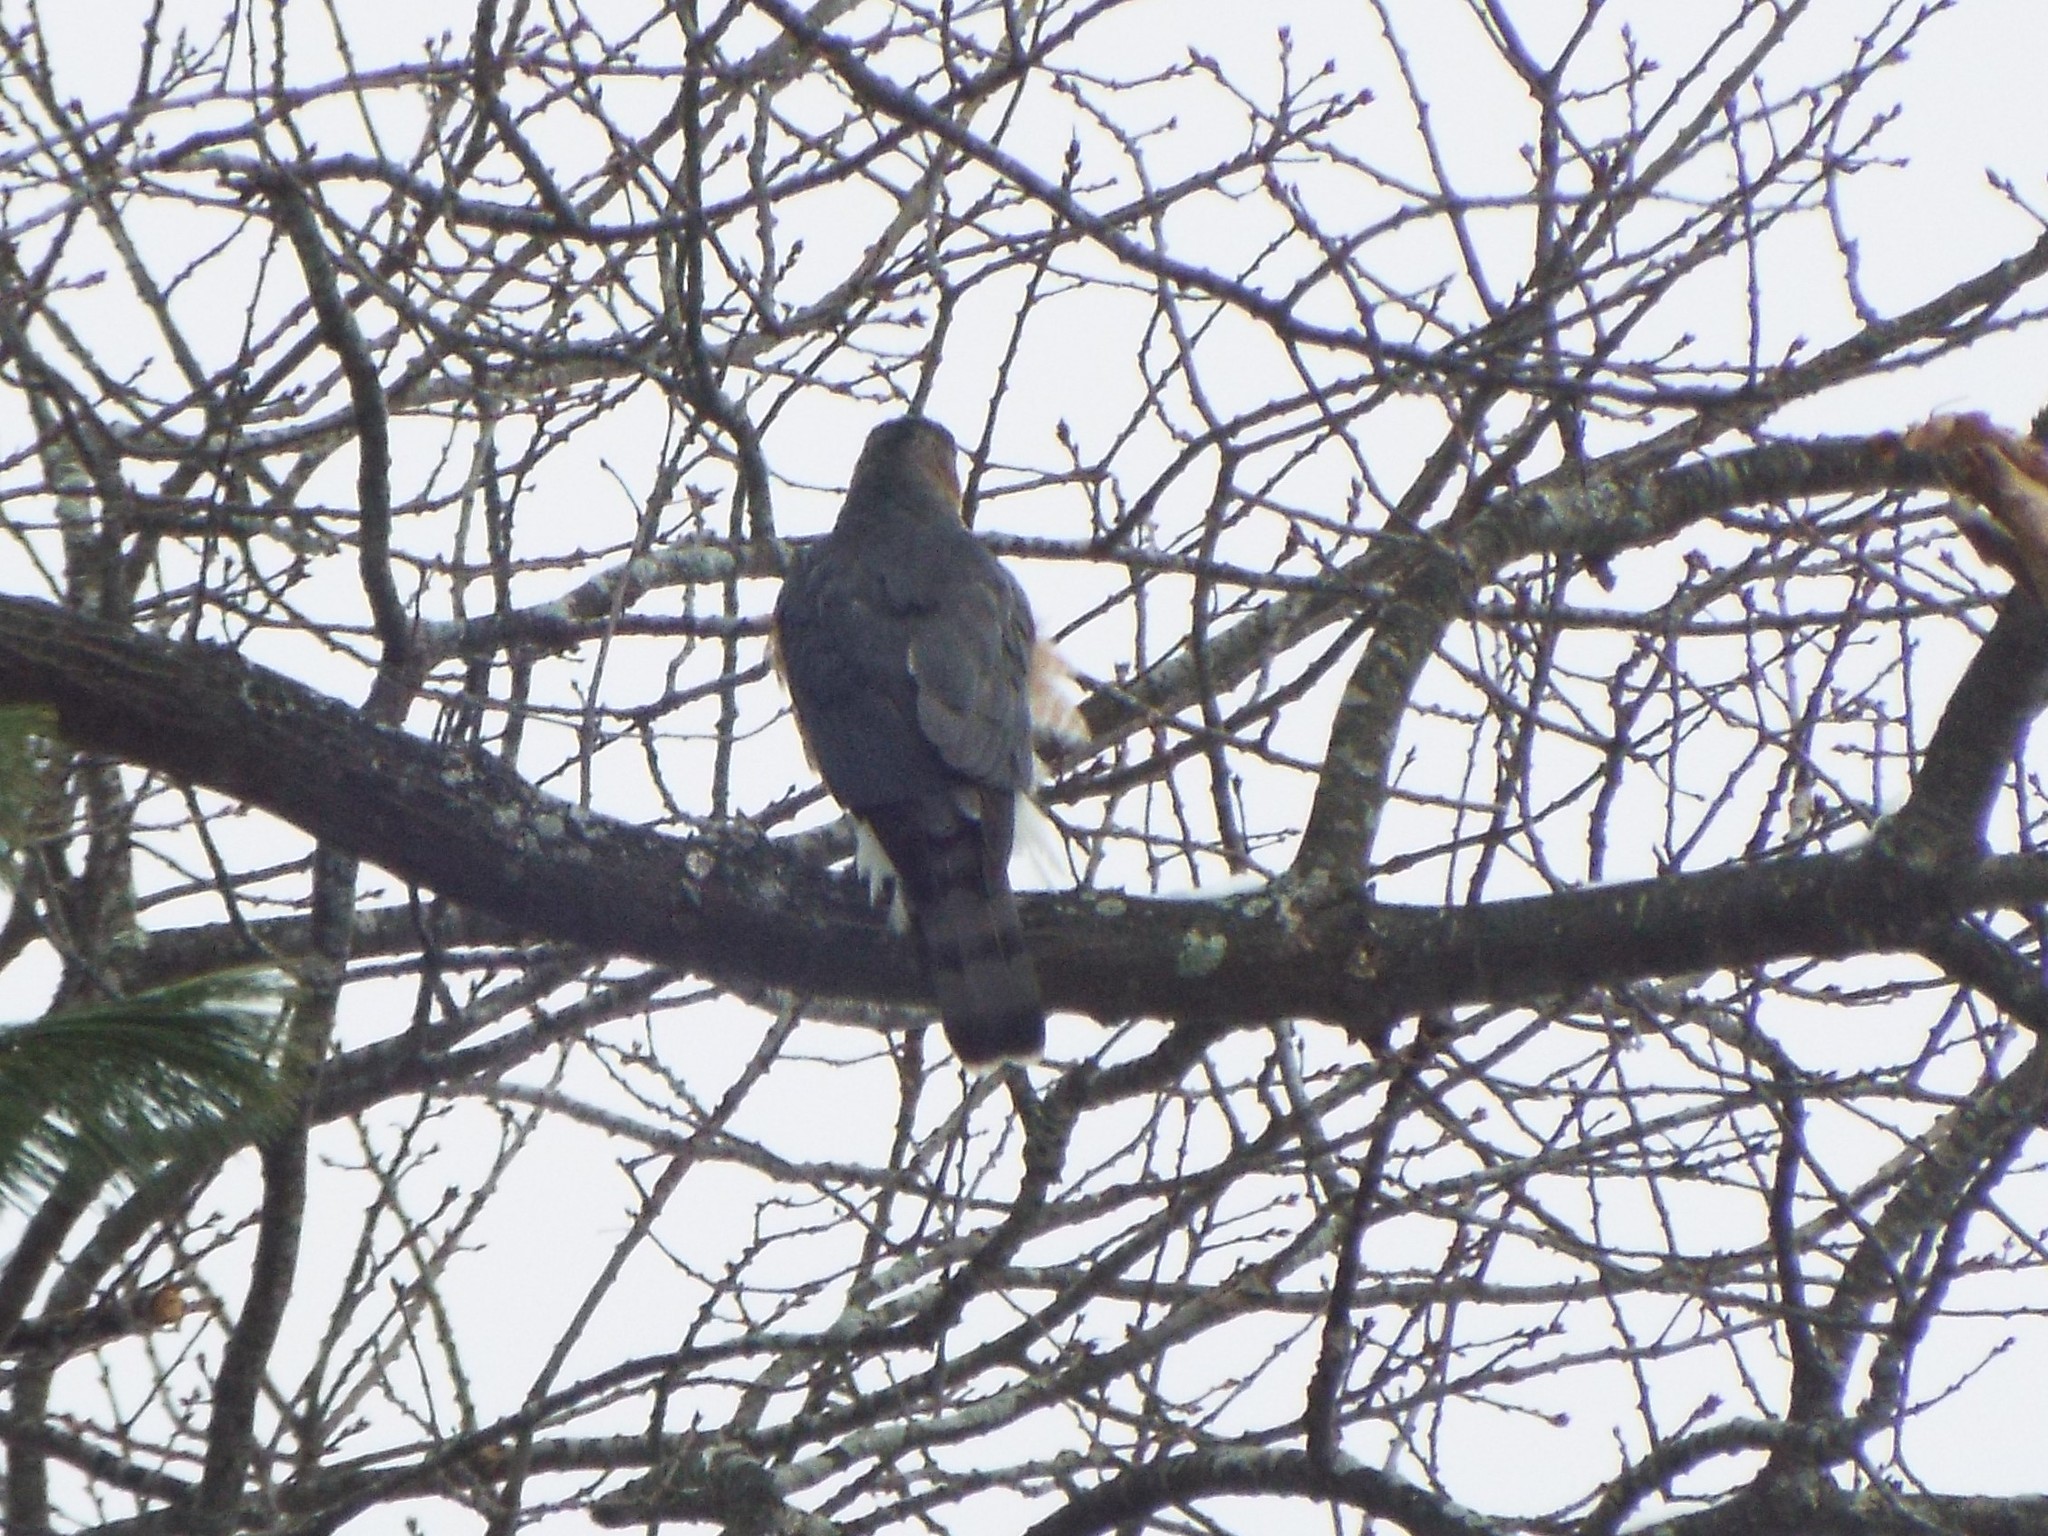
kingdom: Animalia
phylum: Chordata
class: Aves
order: Accipitriformes
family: Accipitridae
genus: Accipiter
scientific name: Accipiter cooperii
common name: Cooper's hawk
